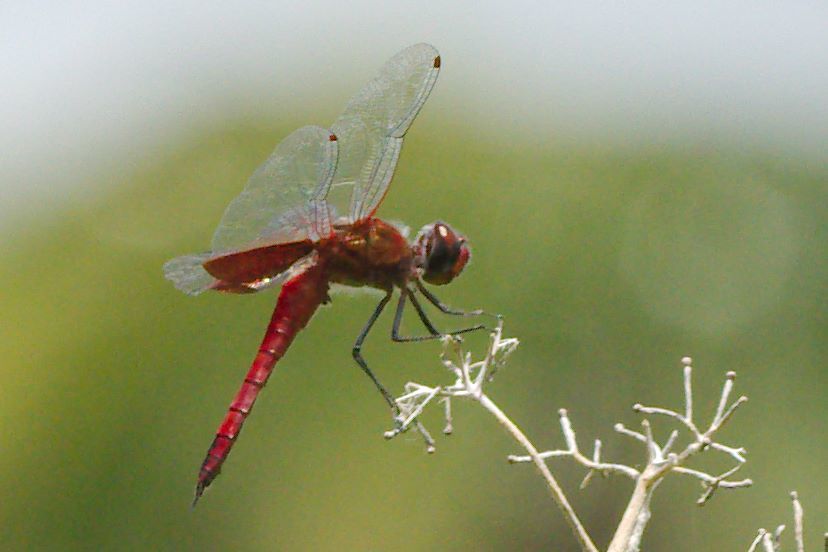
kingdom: Animalia
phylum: Arthropoda
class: Insecta
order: Odonata
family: Libellulidae
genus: Tramea
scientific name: Tramea onusta
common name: Red saddlebags
